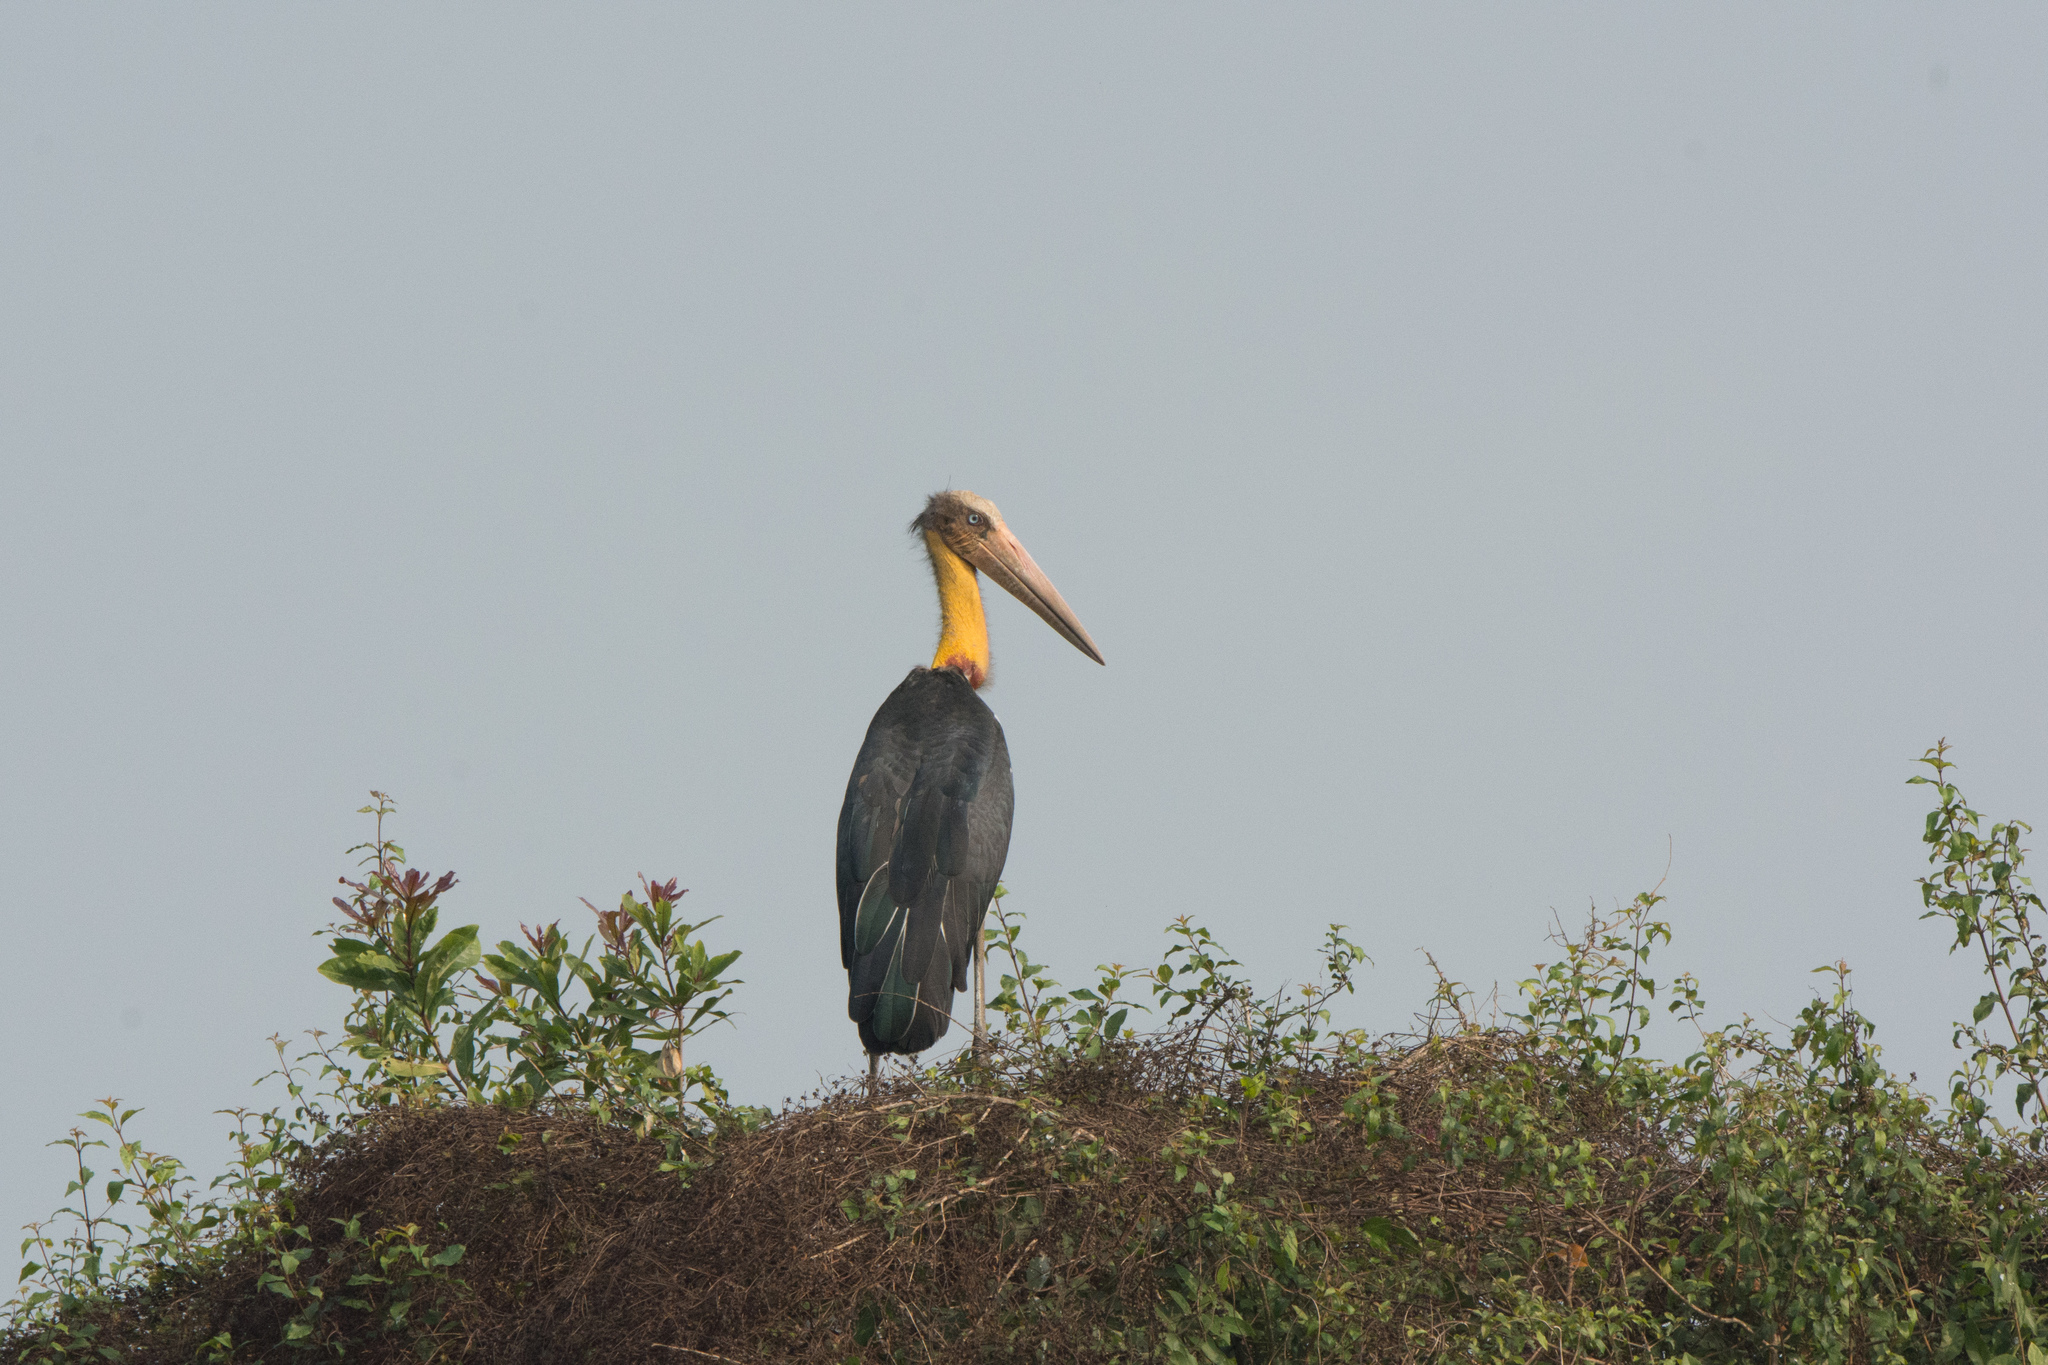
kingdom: Animalia
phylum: Chordata
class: Aves
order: Ciconiiformes
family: Ciconiidae
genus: Leptoptilos
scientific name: Leptoptilos javanicus
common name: Lesser adjutant
